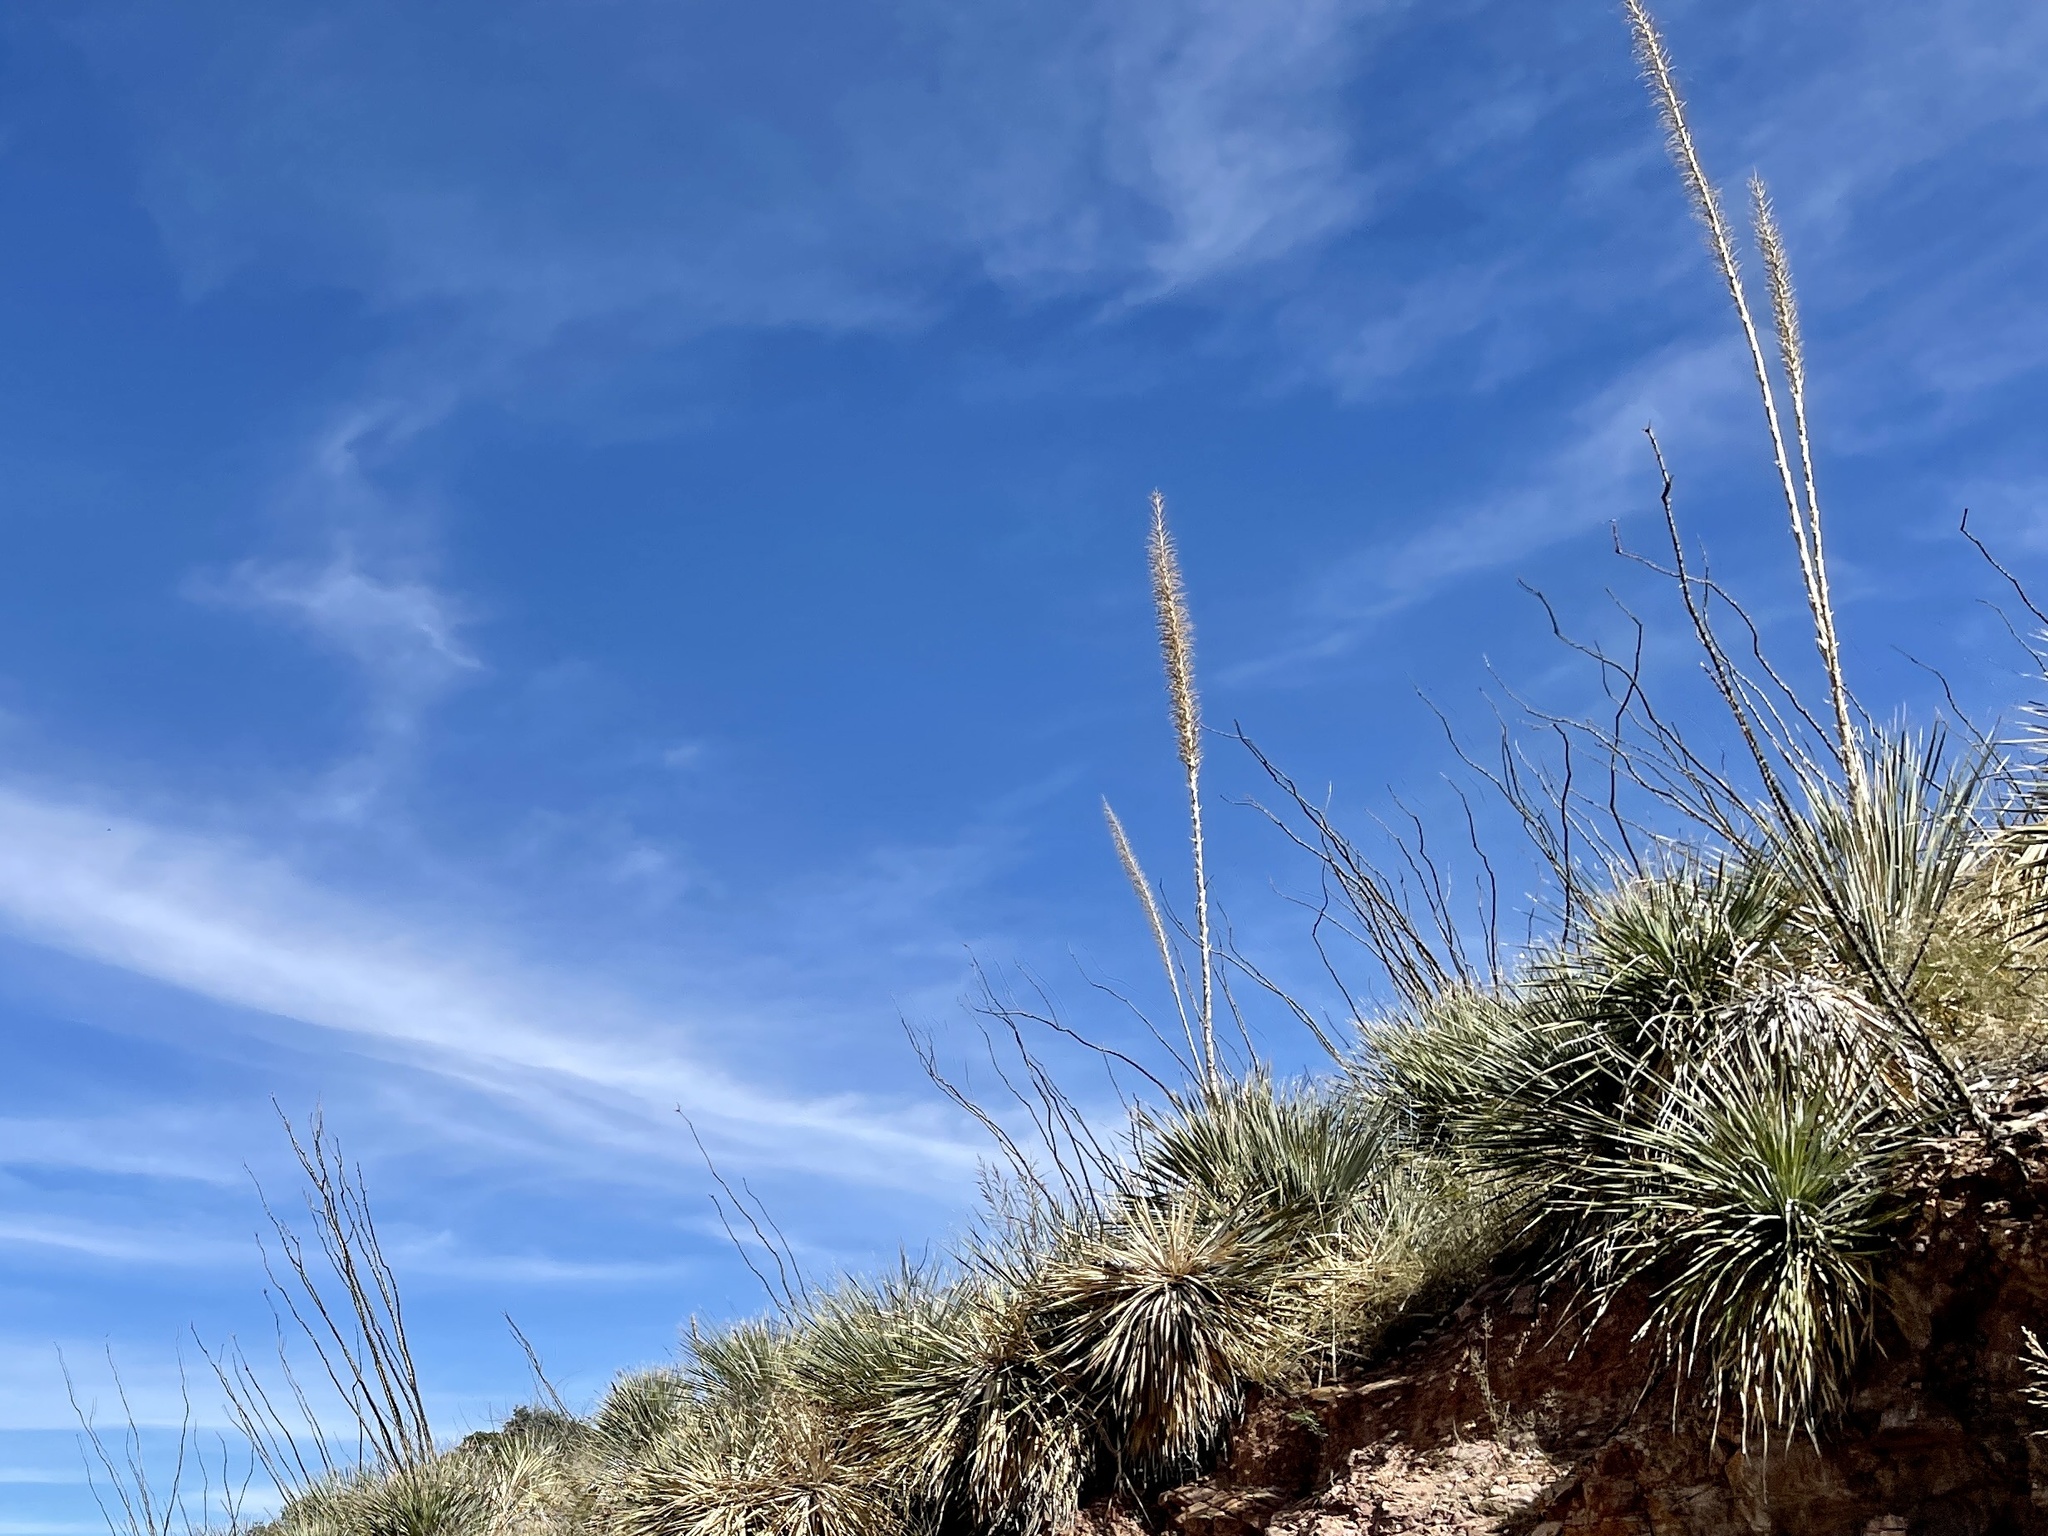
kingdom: Plantae
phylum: Tracheophyta
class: Liliopsida
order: Asparagales
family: Asparagaceae
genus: Dasylirion
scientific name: Dasylirion wheeleri
